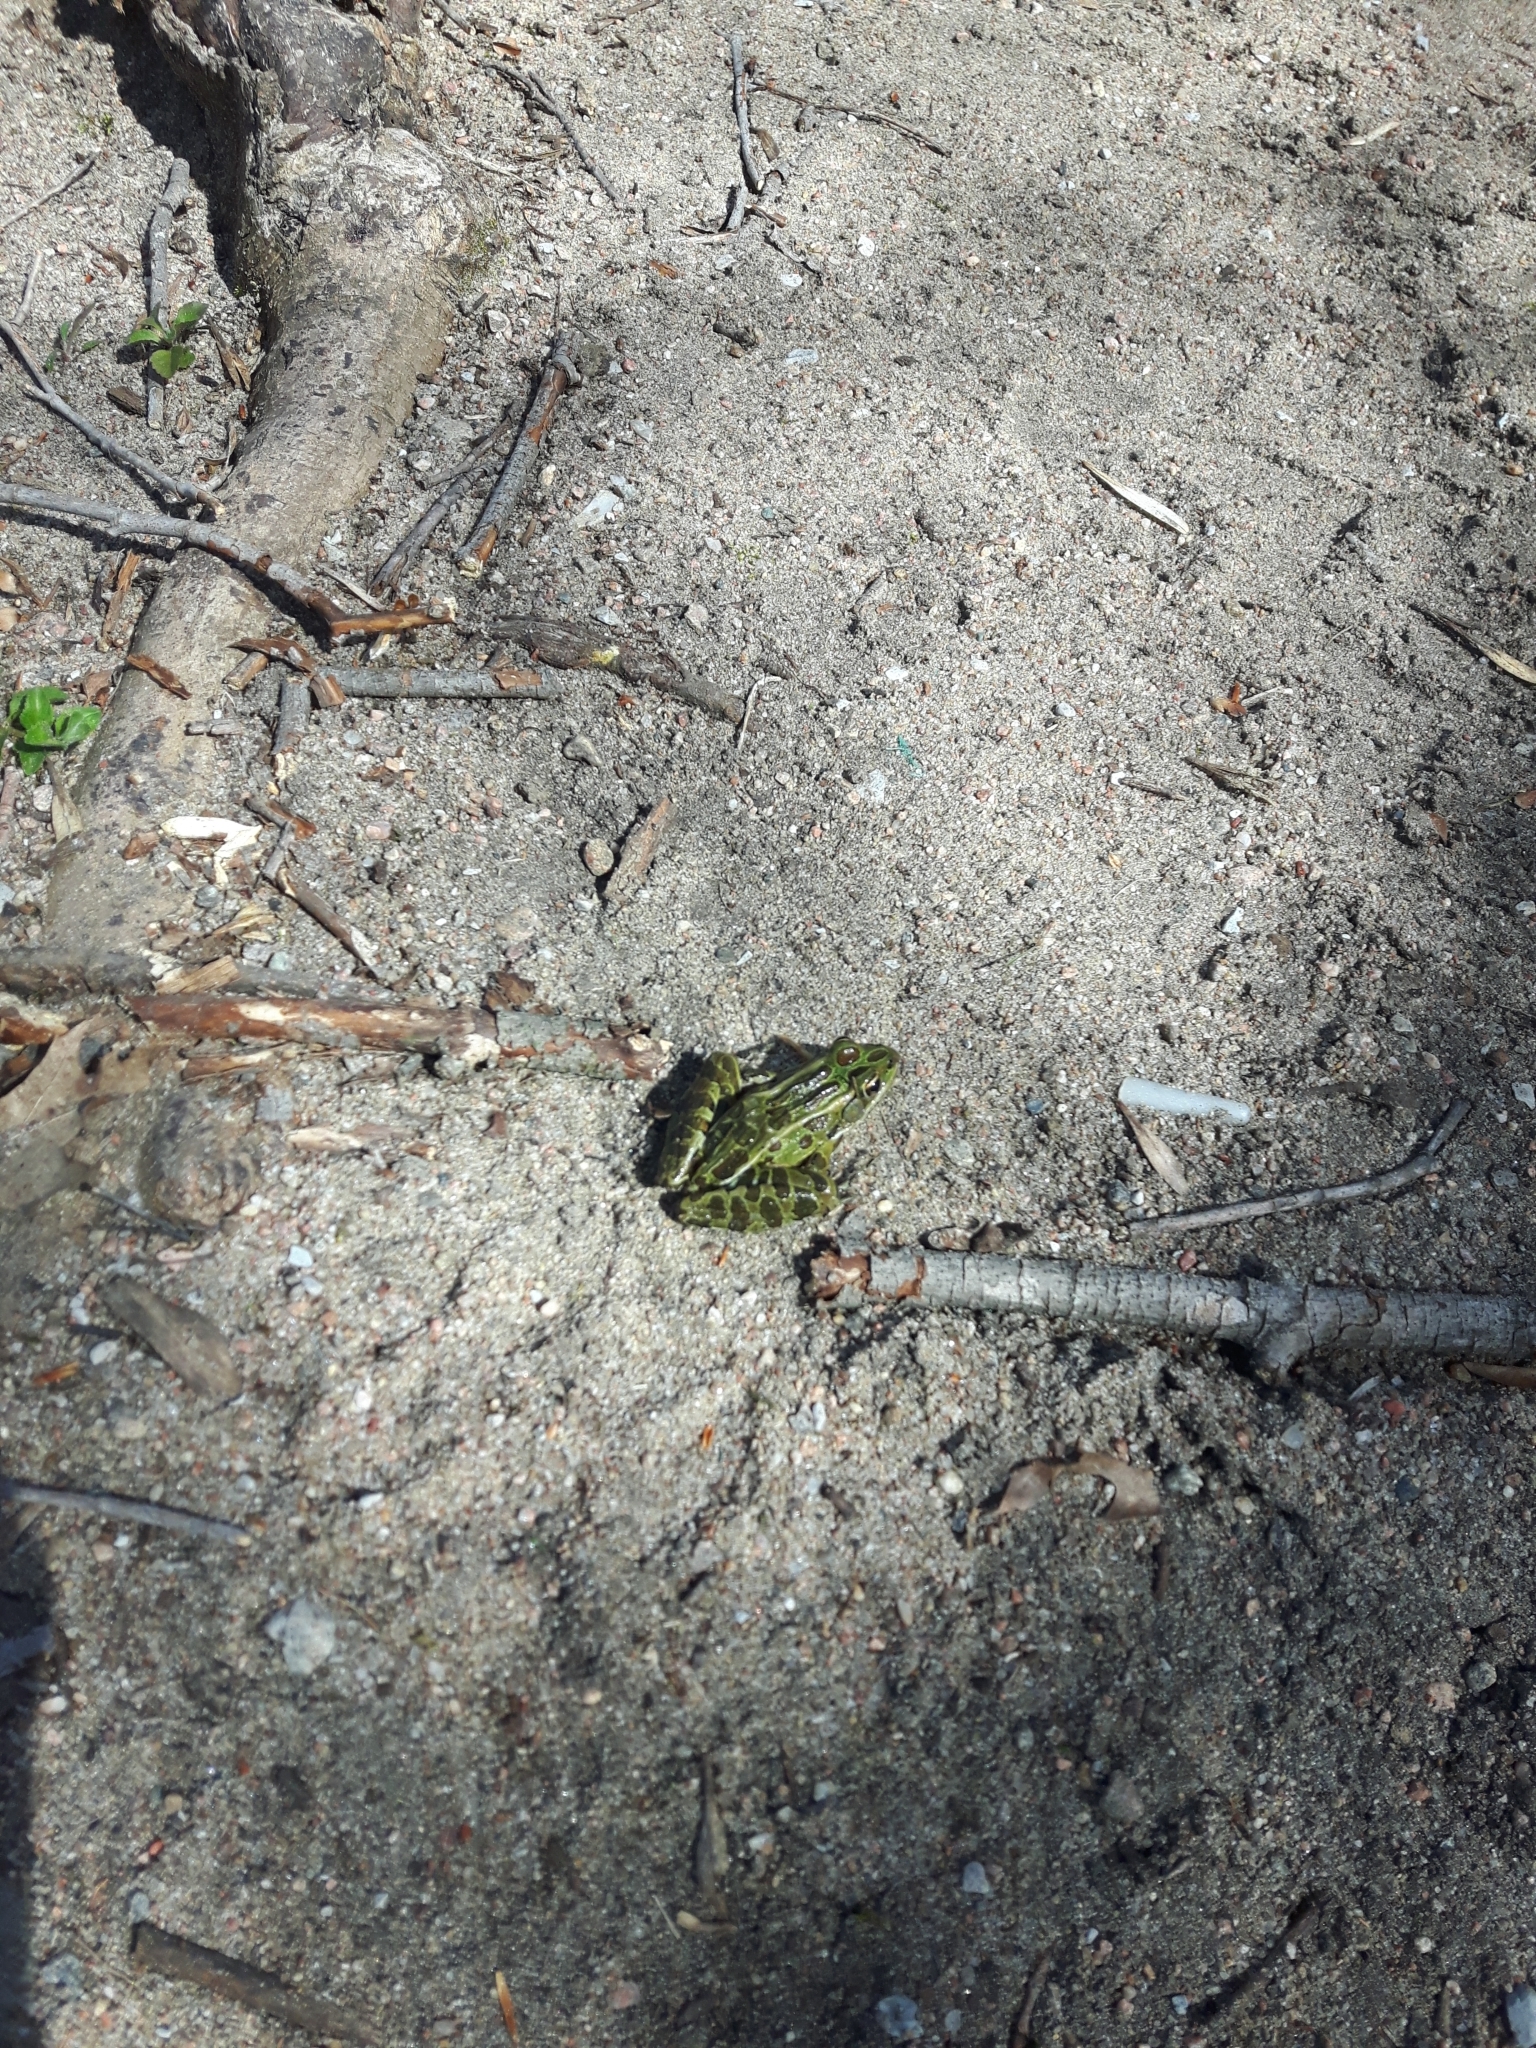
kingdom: Animalia
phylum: Chordata
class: Amphibia
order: Anura
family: Ranidae
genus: Lithobates
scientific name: Lithobates pipiens
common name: Northern leopard frog
